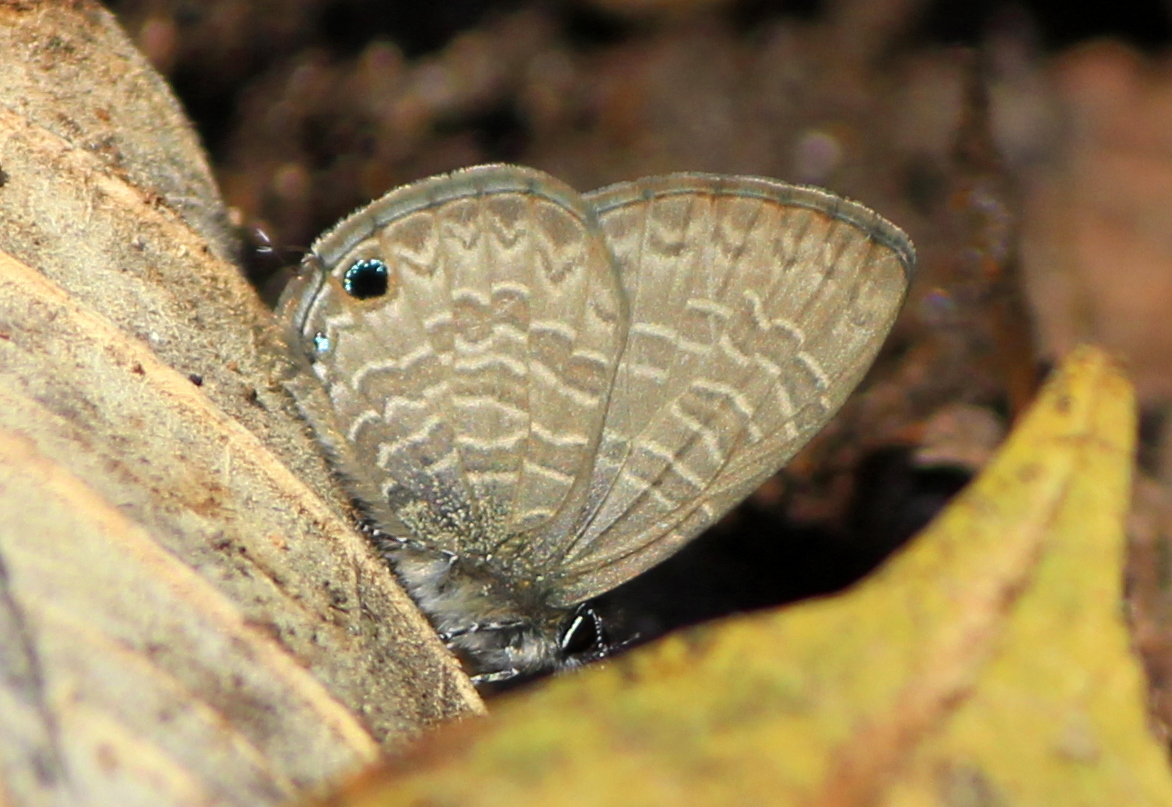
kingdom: Animalia
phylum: Arthropoda
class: Insecta
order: Lepidoptera
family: Lycaenidae
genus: Prosotas
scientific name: Prosotas nora
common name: Common line blue
